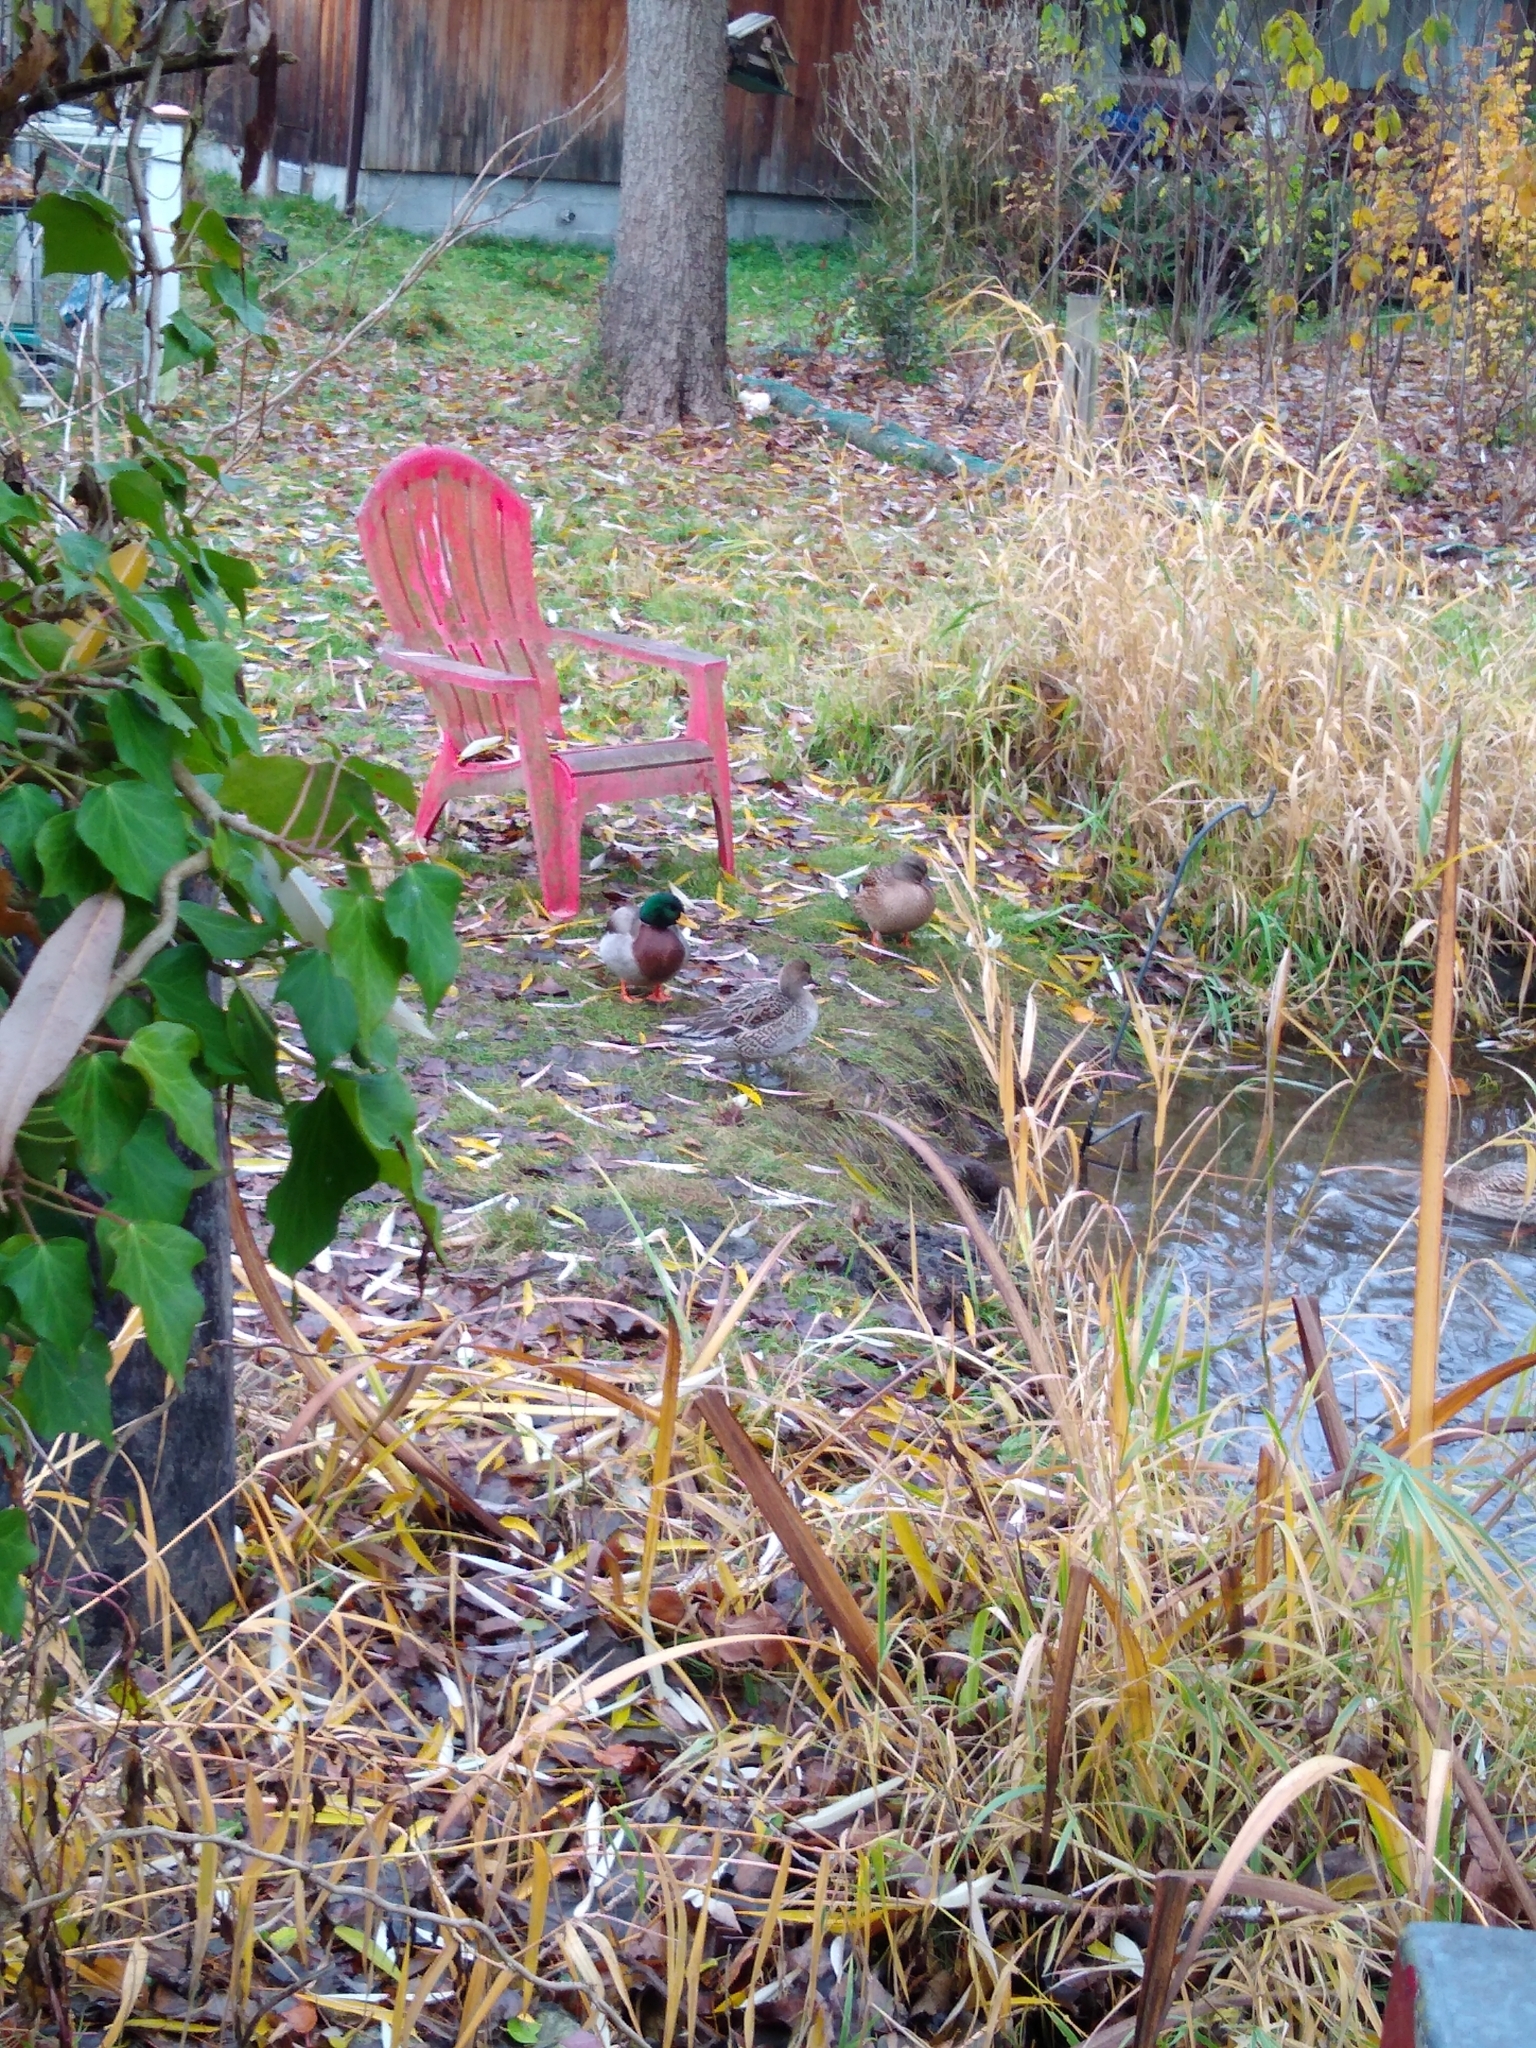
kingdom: Animalia
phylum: Chordata
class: Aves
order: Anseriformes
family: Anatidae
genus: Anas
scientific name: Anas acuta
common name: Northern pintail
